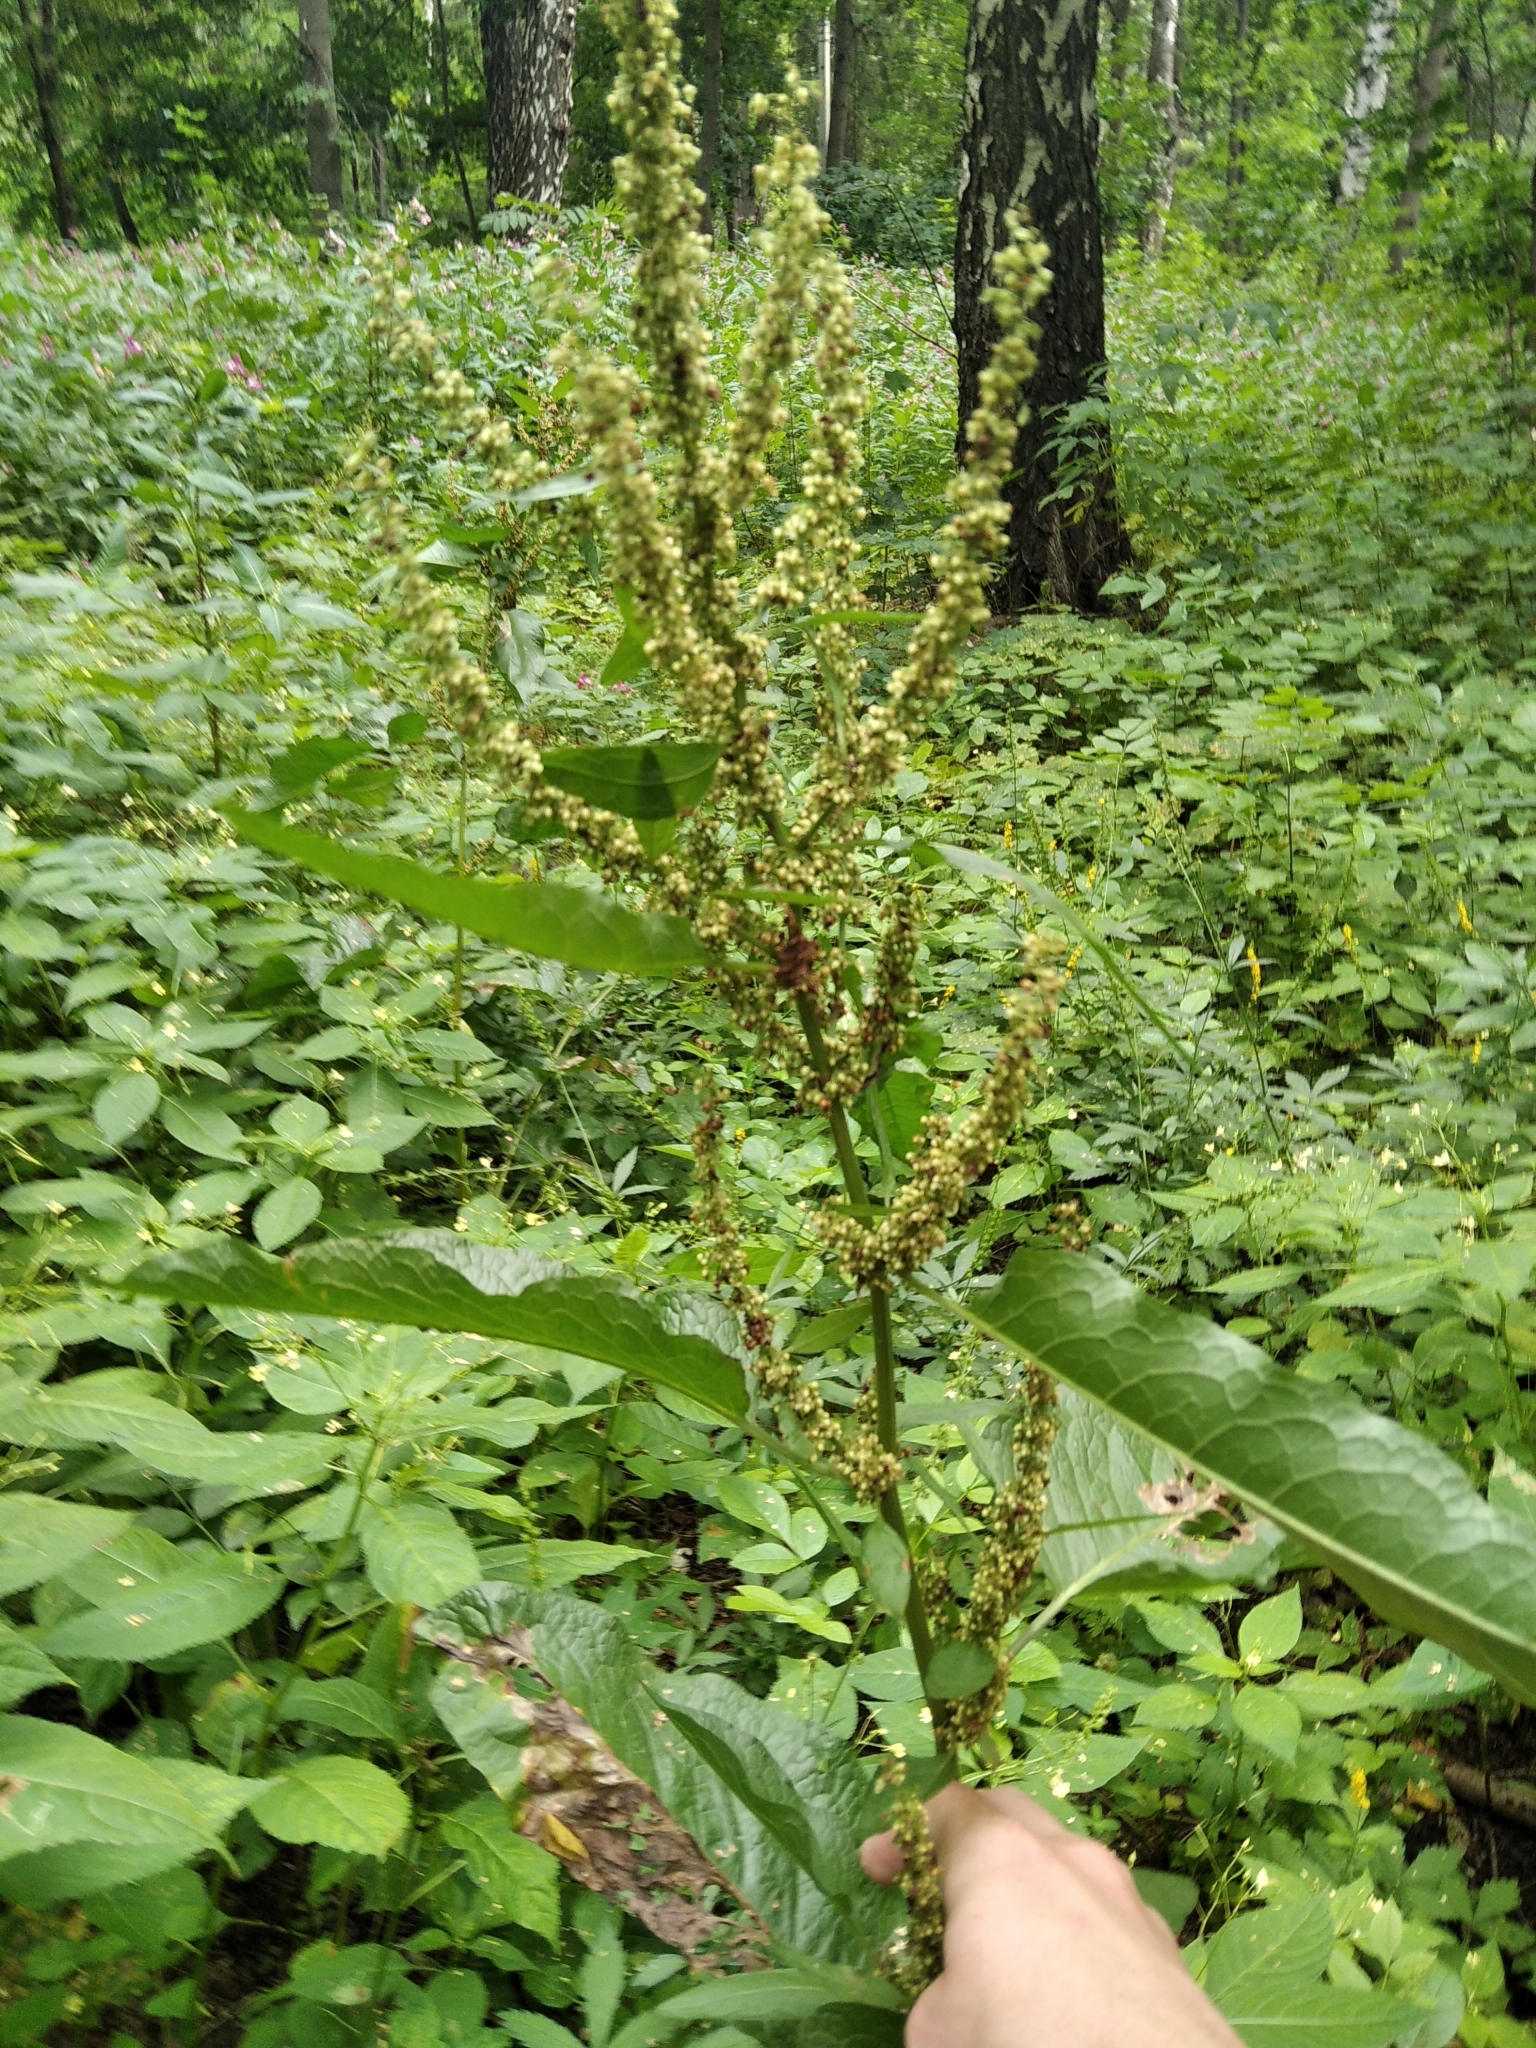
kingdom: Plantae
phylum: Tracheophyta
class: Magnoliopsida
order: Caryophyllales
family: Polygonaceae
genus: Rumex
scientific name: Rumex obtusifolius
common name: Bitter dock
